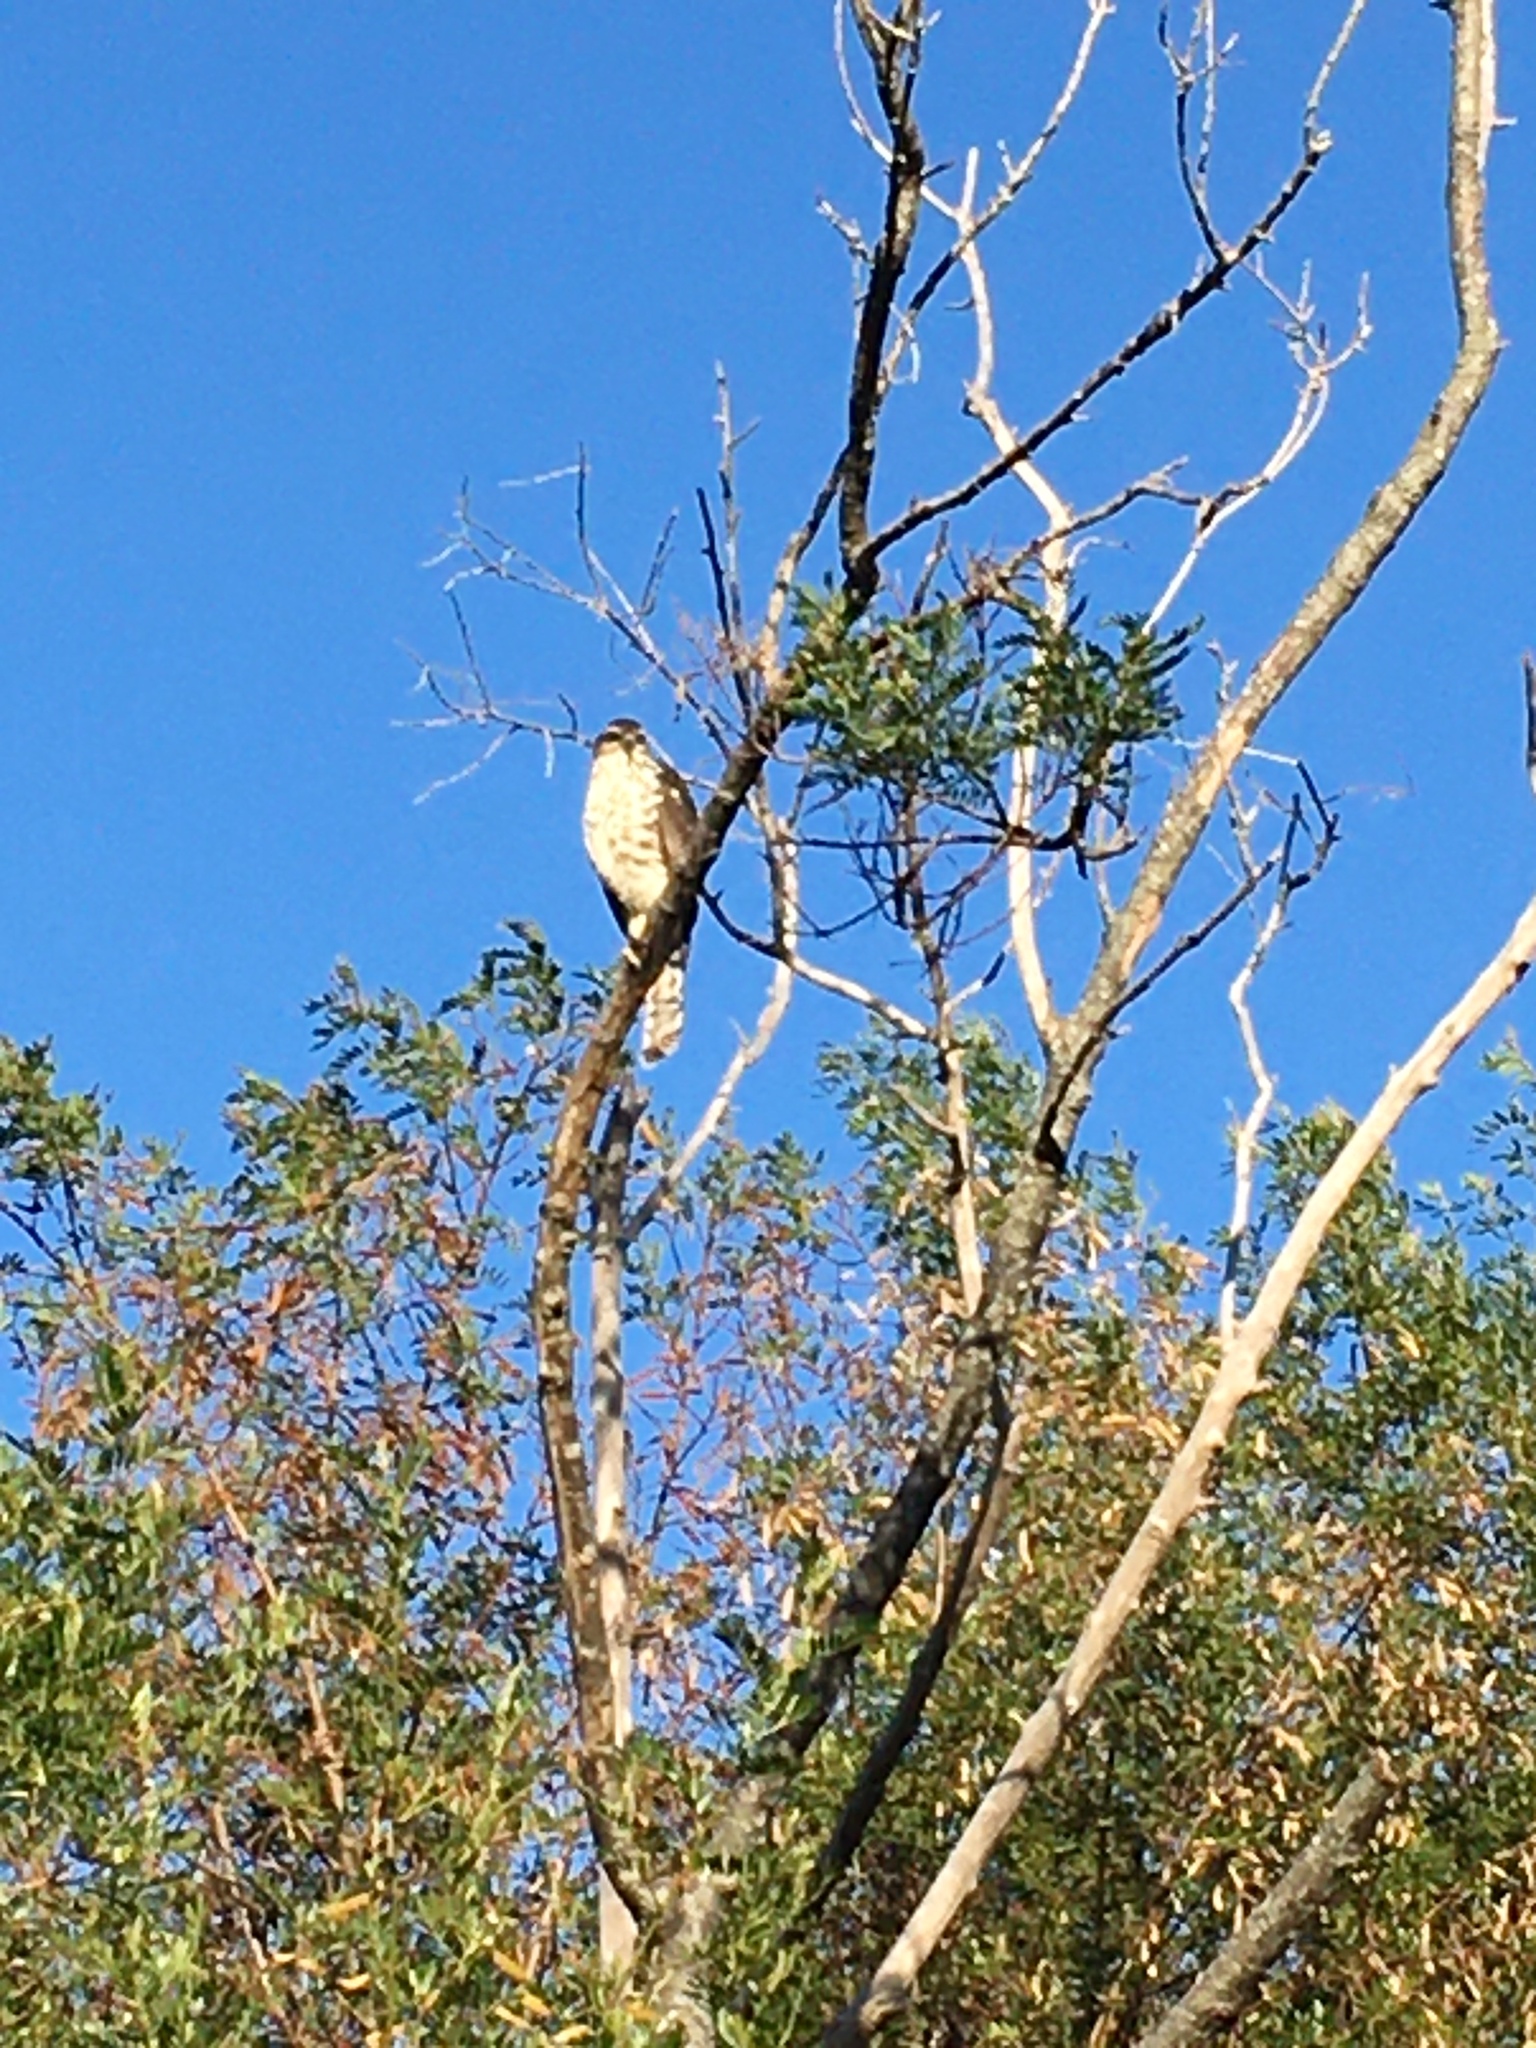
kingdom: Animalia
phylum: Chordata
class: Aves
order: Accipitriformes
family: Accipitridae
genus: Accipiter
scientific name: Accipiter tachiro
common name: African goshawk
